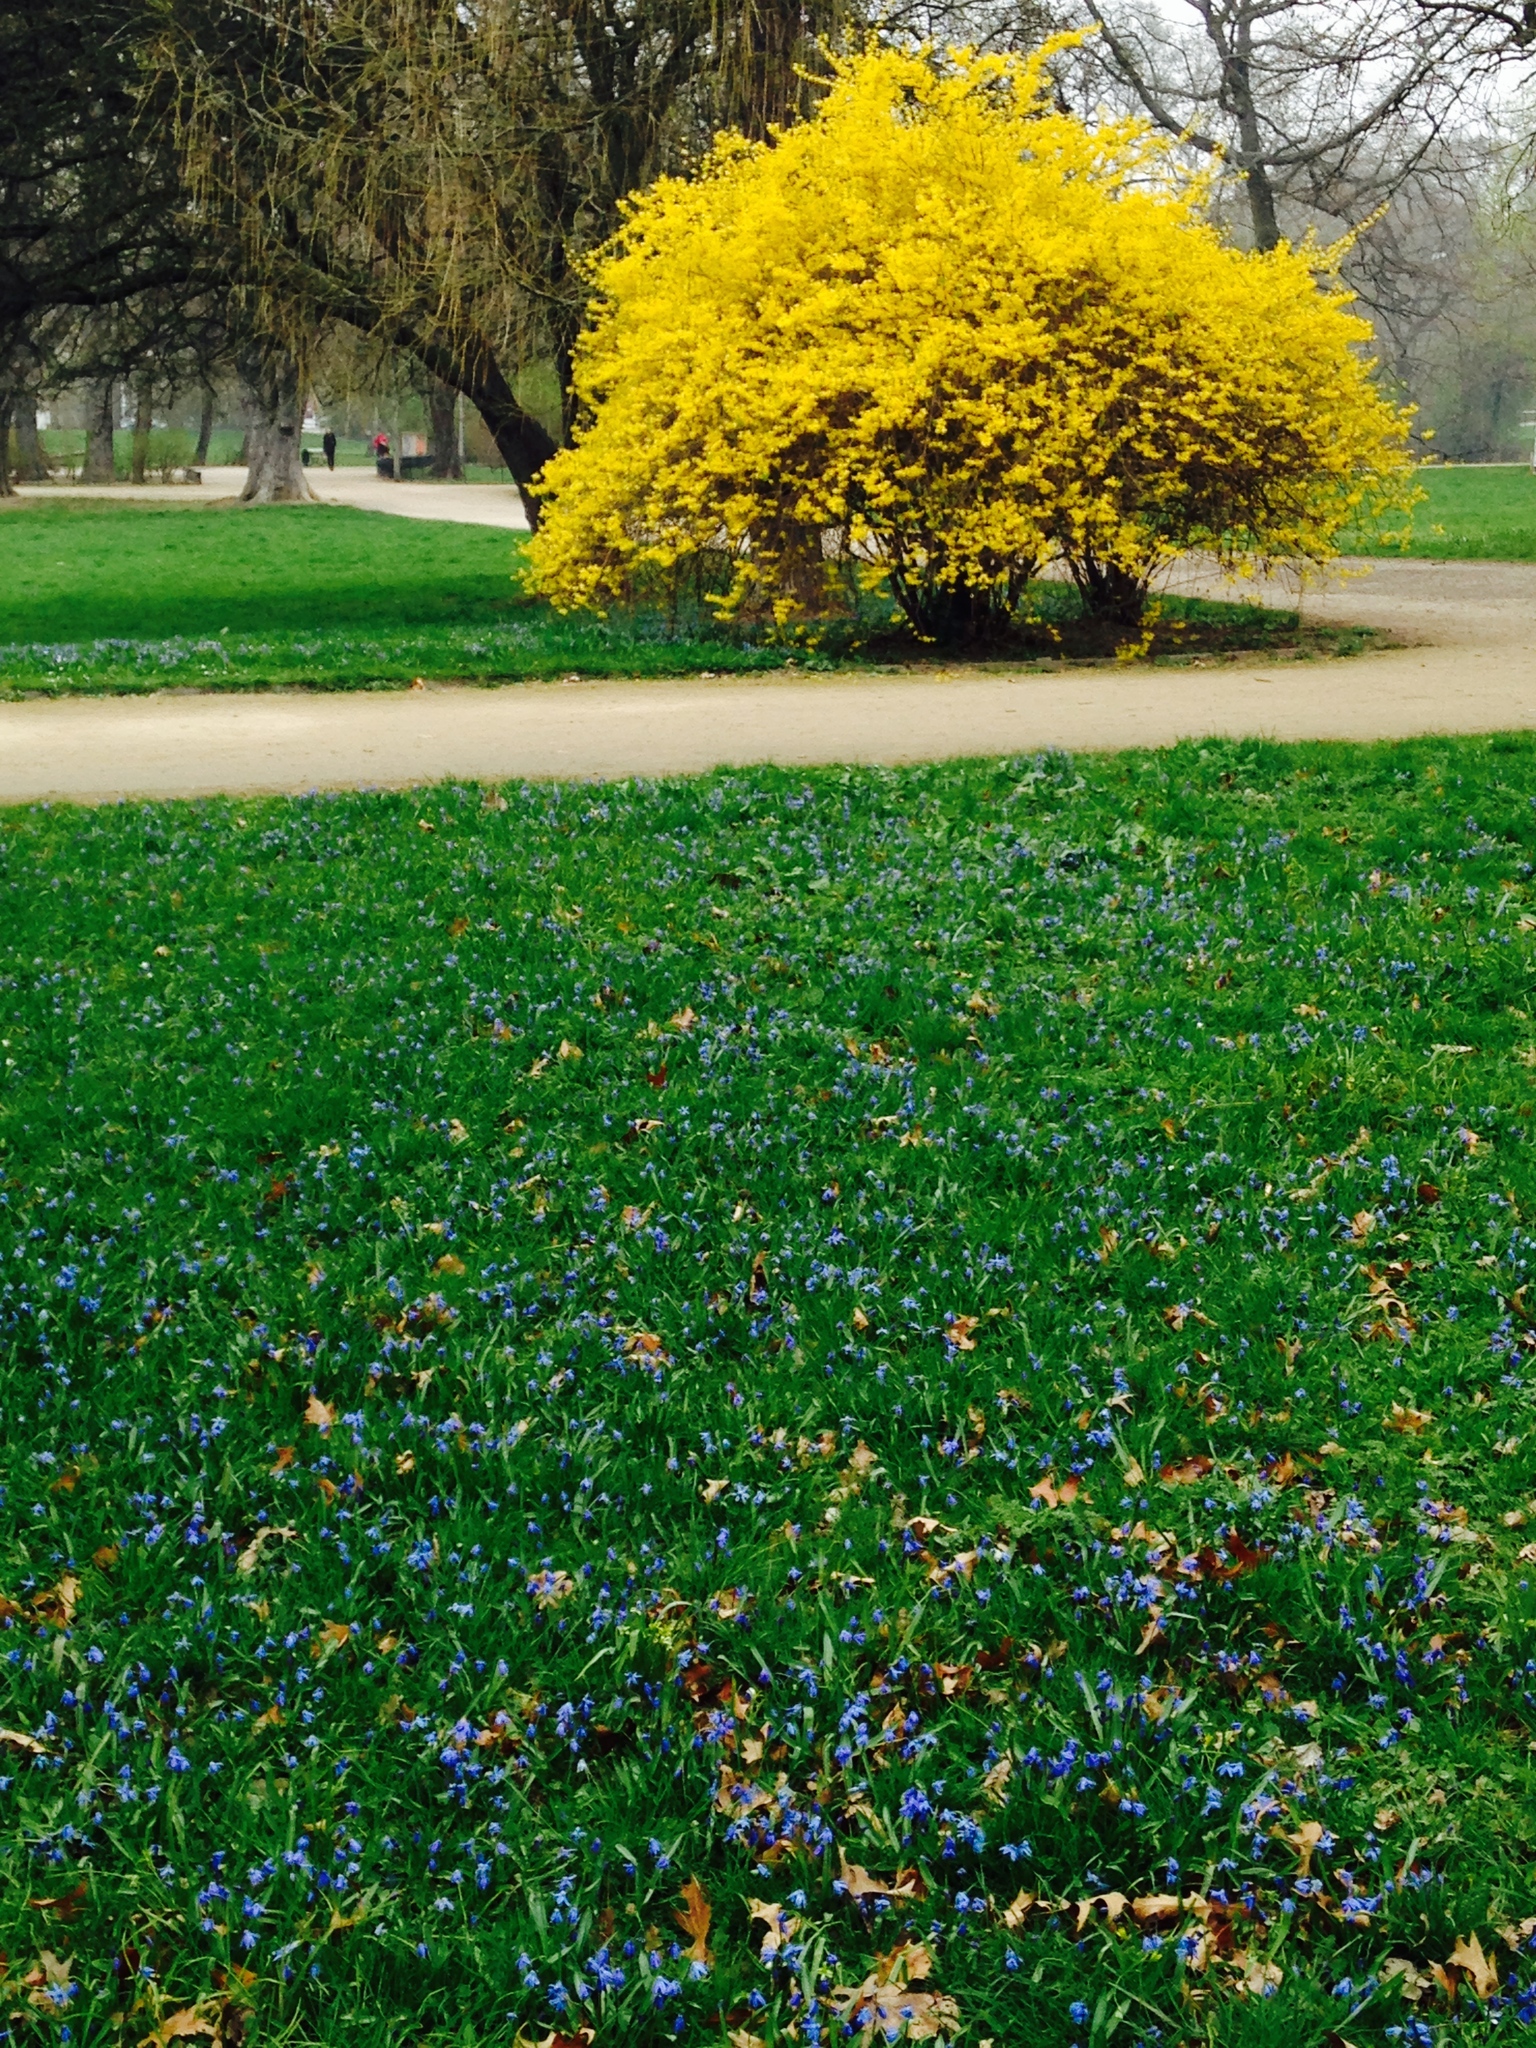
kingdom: Plantae
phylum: Tracheophyta
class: Liliopsida
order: Asparagales
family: Asparagaceae
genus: Scilla
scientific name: Scilla siberica
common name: Siberian squill
